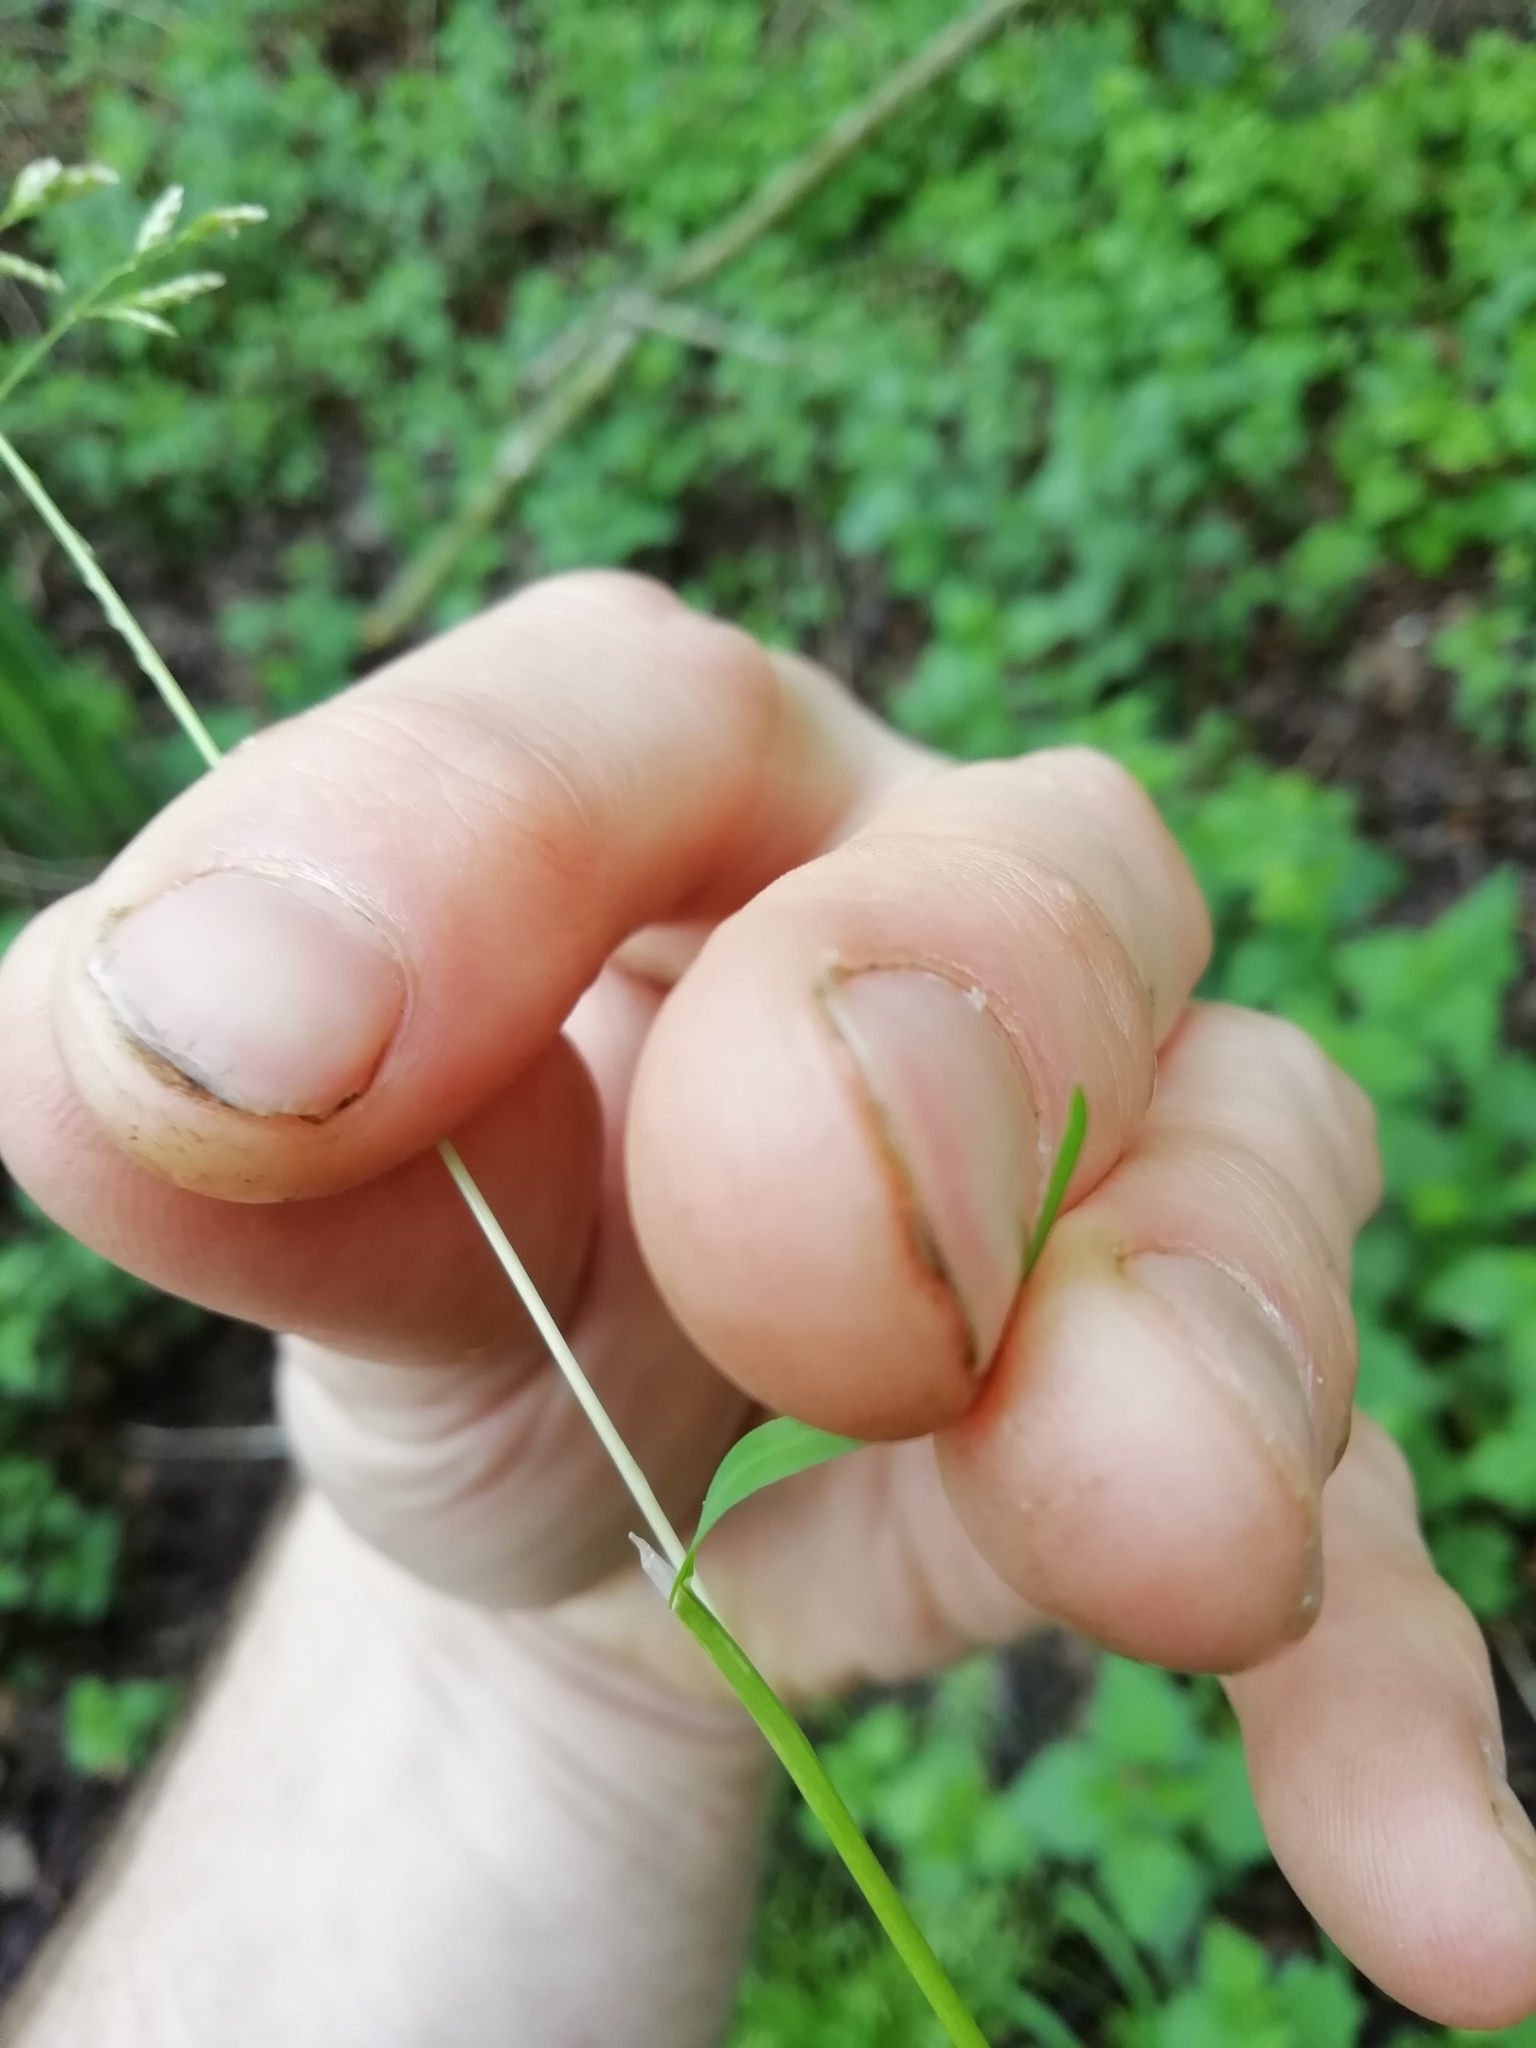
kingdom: Plantae
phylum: Tracheophyta
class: Liliopsida
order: Poales
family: Poaceae
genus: Poa
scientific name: Poa annua
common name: Annual bluegrass
